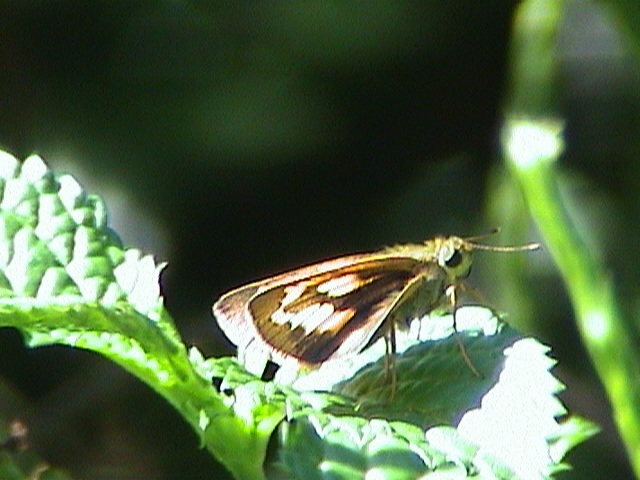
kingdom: Animalia
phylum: Arthropoda
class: Insecta
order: Lepidoptera
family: Hesperiidae
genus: Telicota
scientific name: Telicota bambusae
